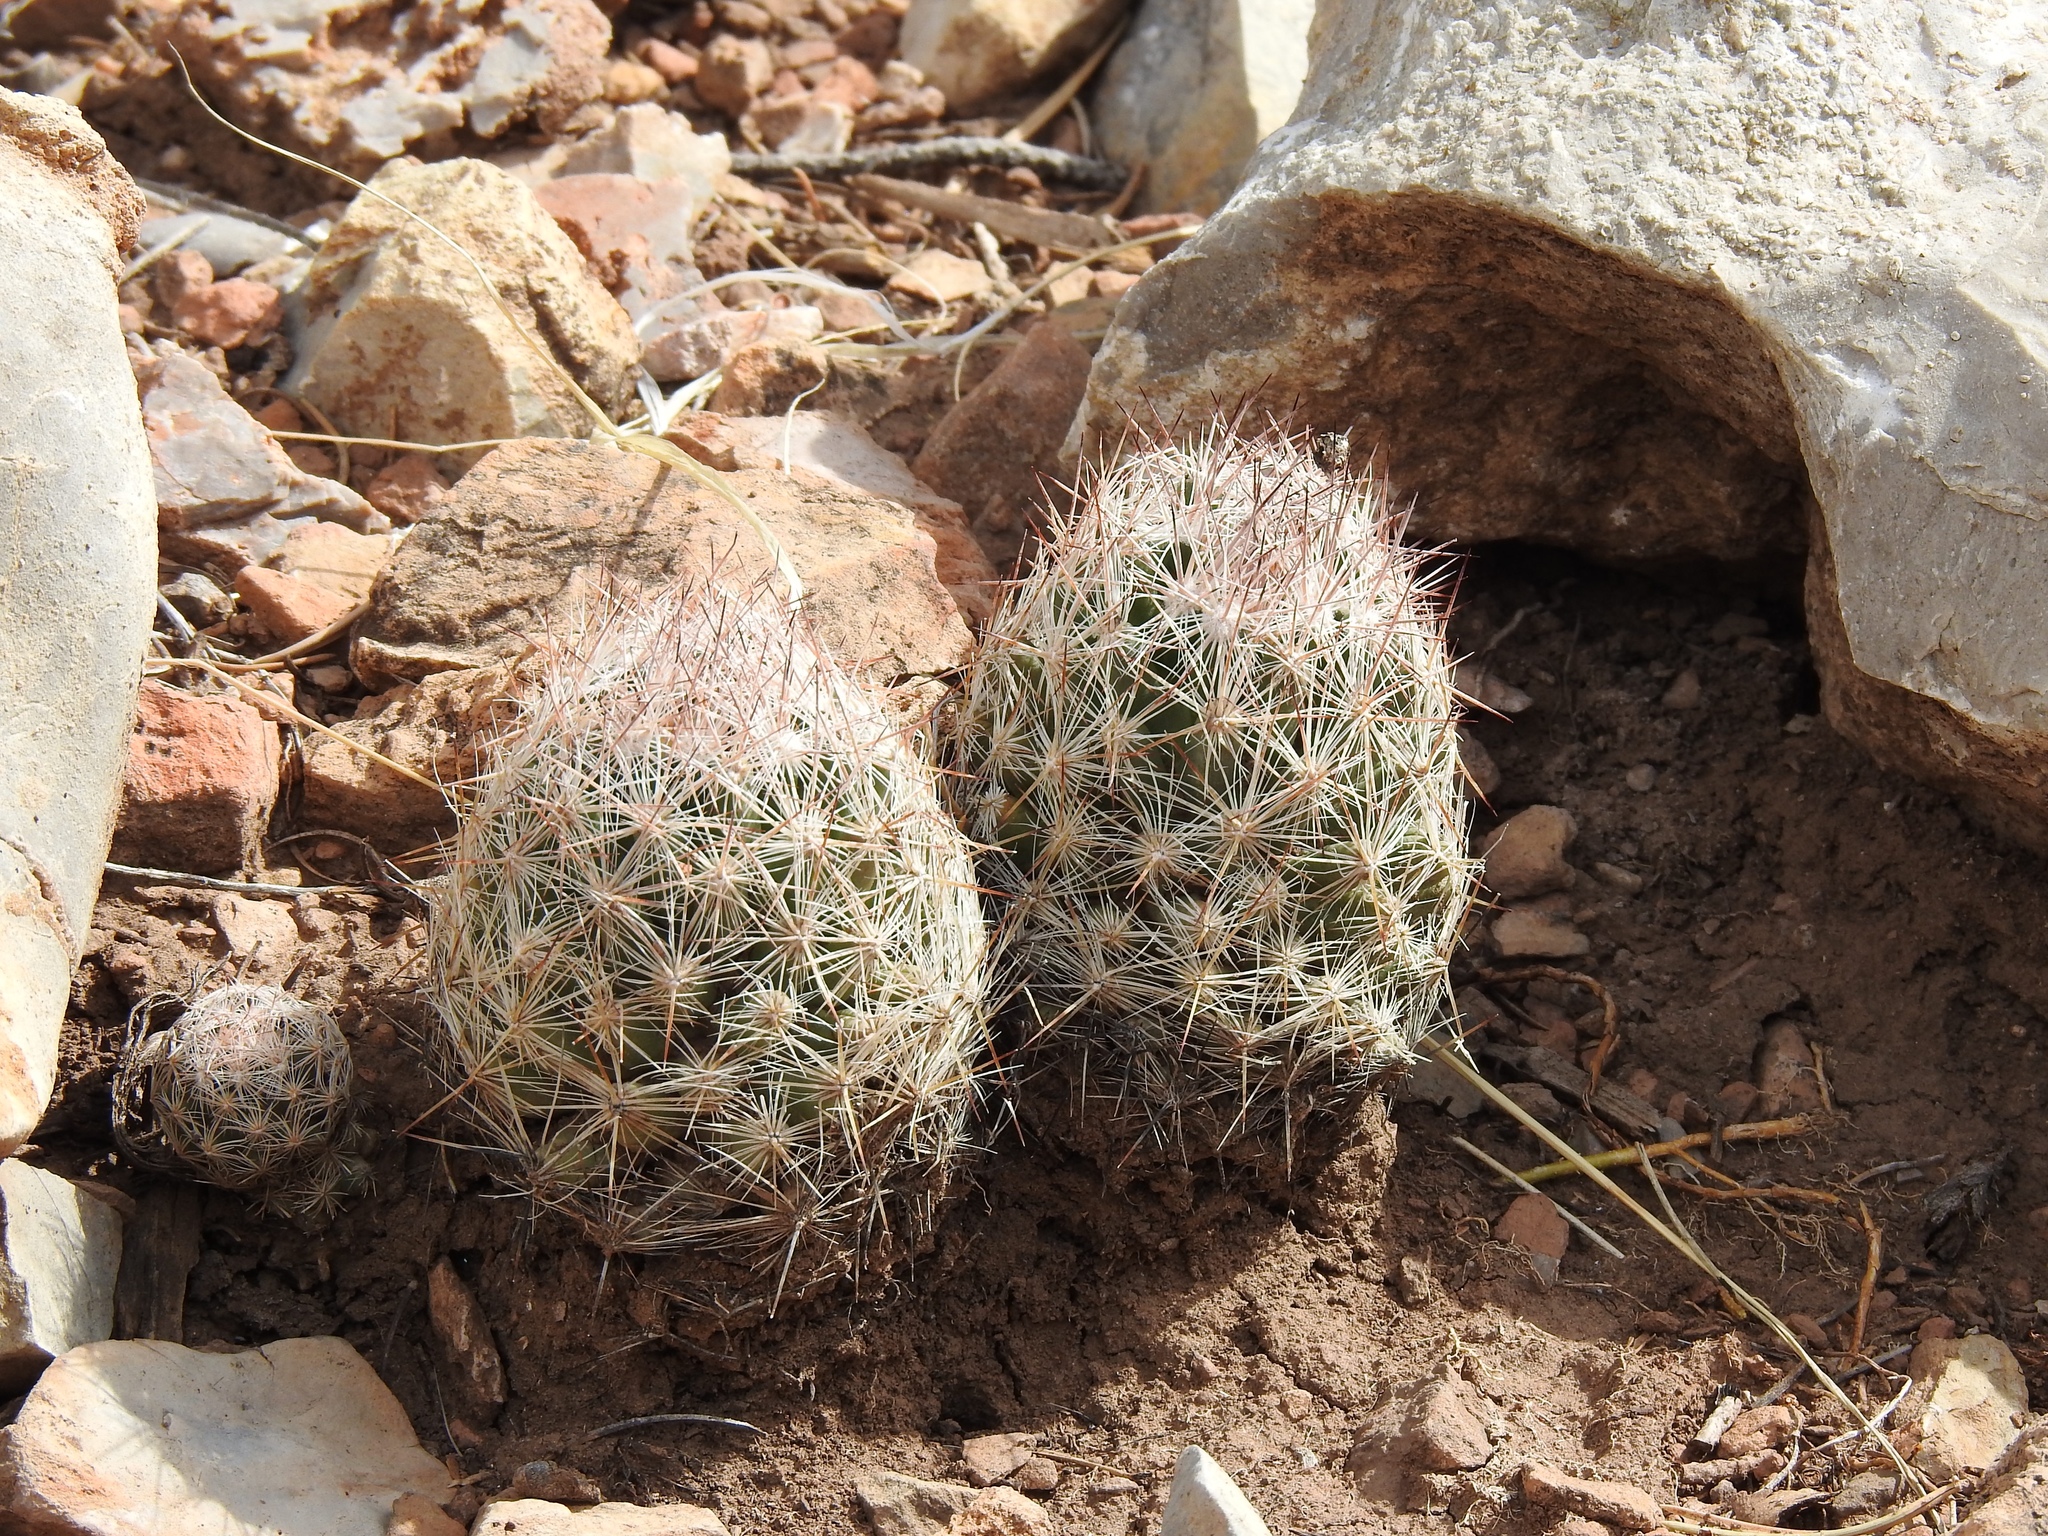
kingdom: Plantae
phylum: Tracheophyta
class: Magnoliopsida
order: Caryophyllales
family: Cactaceae
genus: Pelecyphora
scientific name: Pelecyphora sneedii
